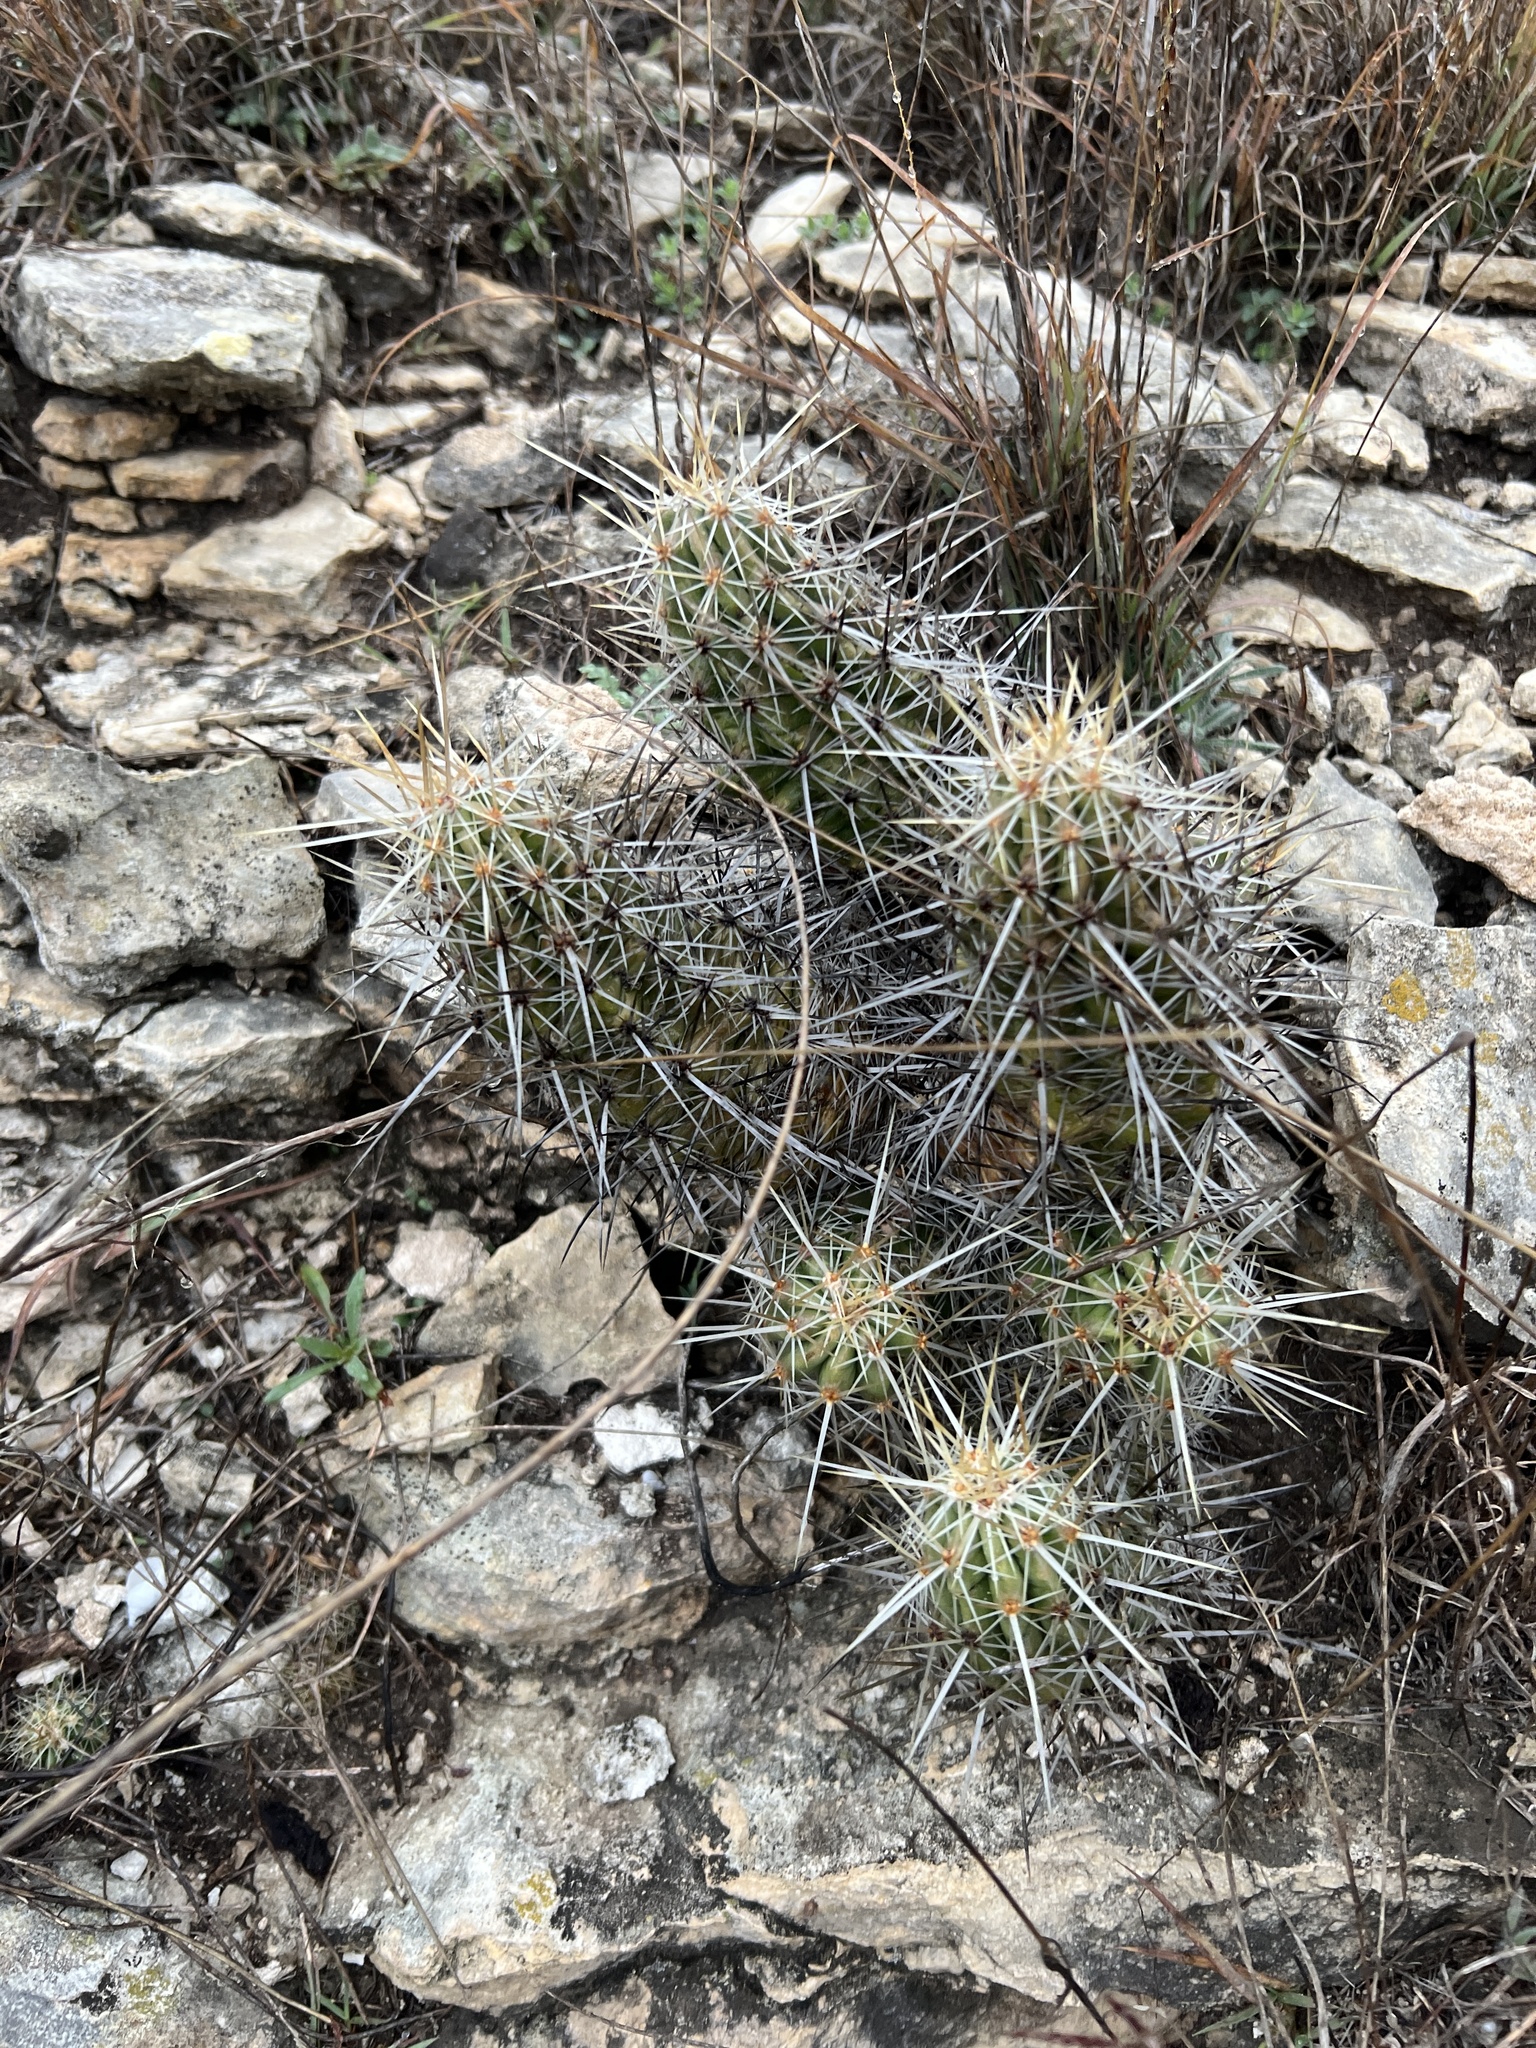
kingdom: Plantae
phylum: Tracheophyta
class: Magnoliopsida
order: Caryophyllales
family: Cactaceae
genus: Echinocereus
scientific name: Echinocereus enneacanthus
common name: Pitaya
